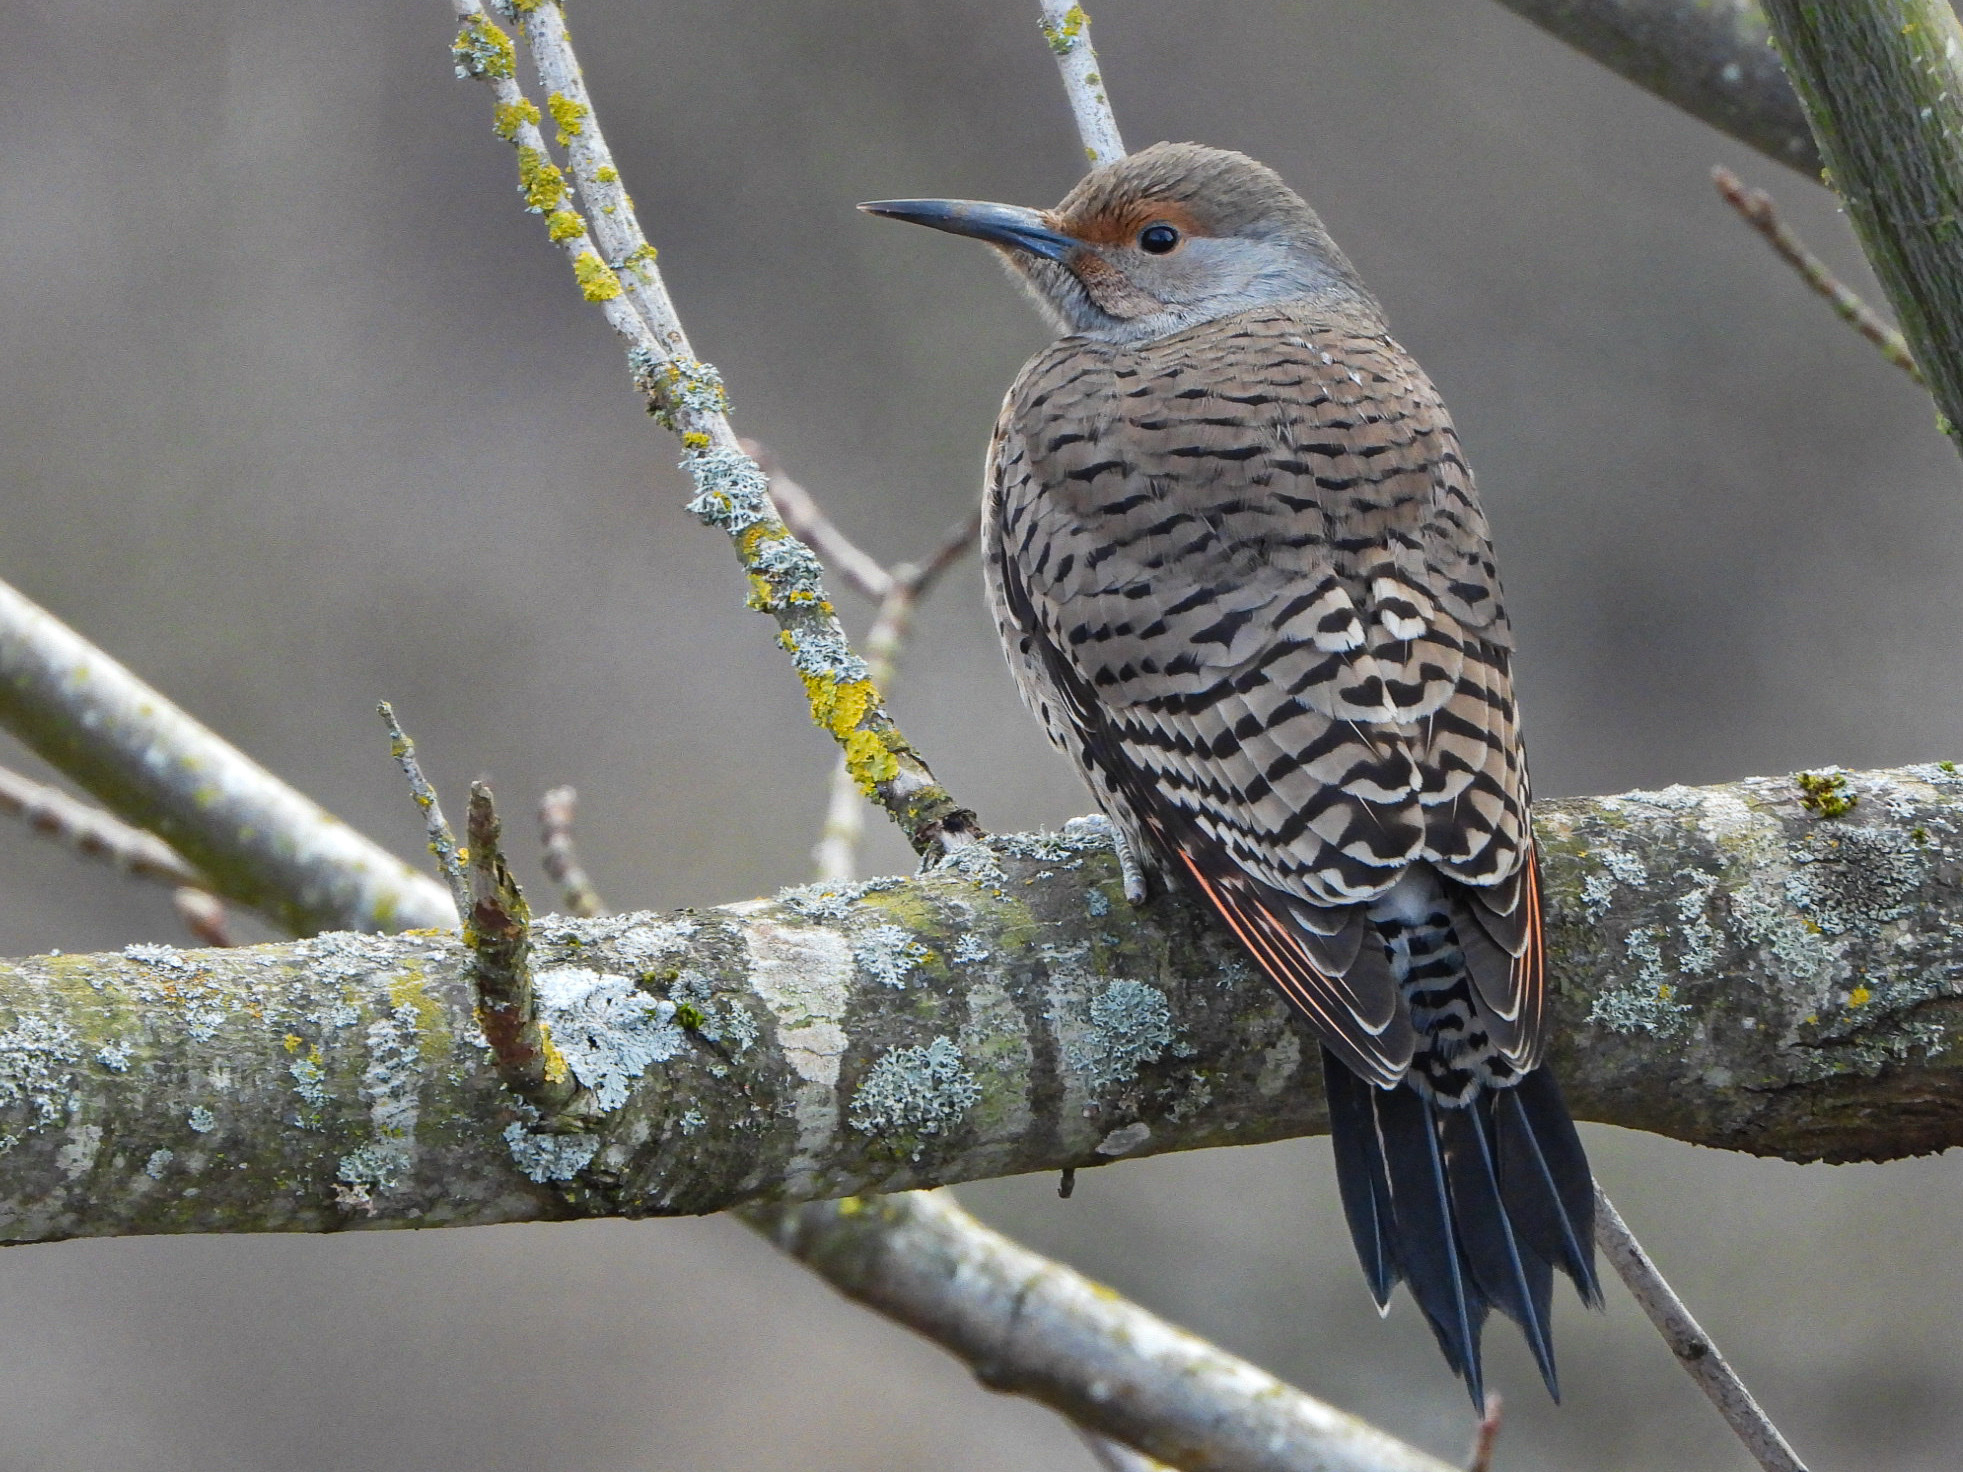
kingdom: Animalia
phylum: Chordata
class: Aves
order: Piciformes
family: Picidae
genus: Colaptes
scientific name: Colaptes auratus
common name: Northern flicker
